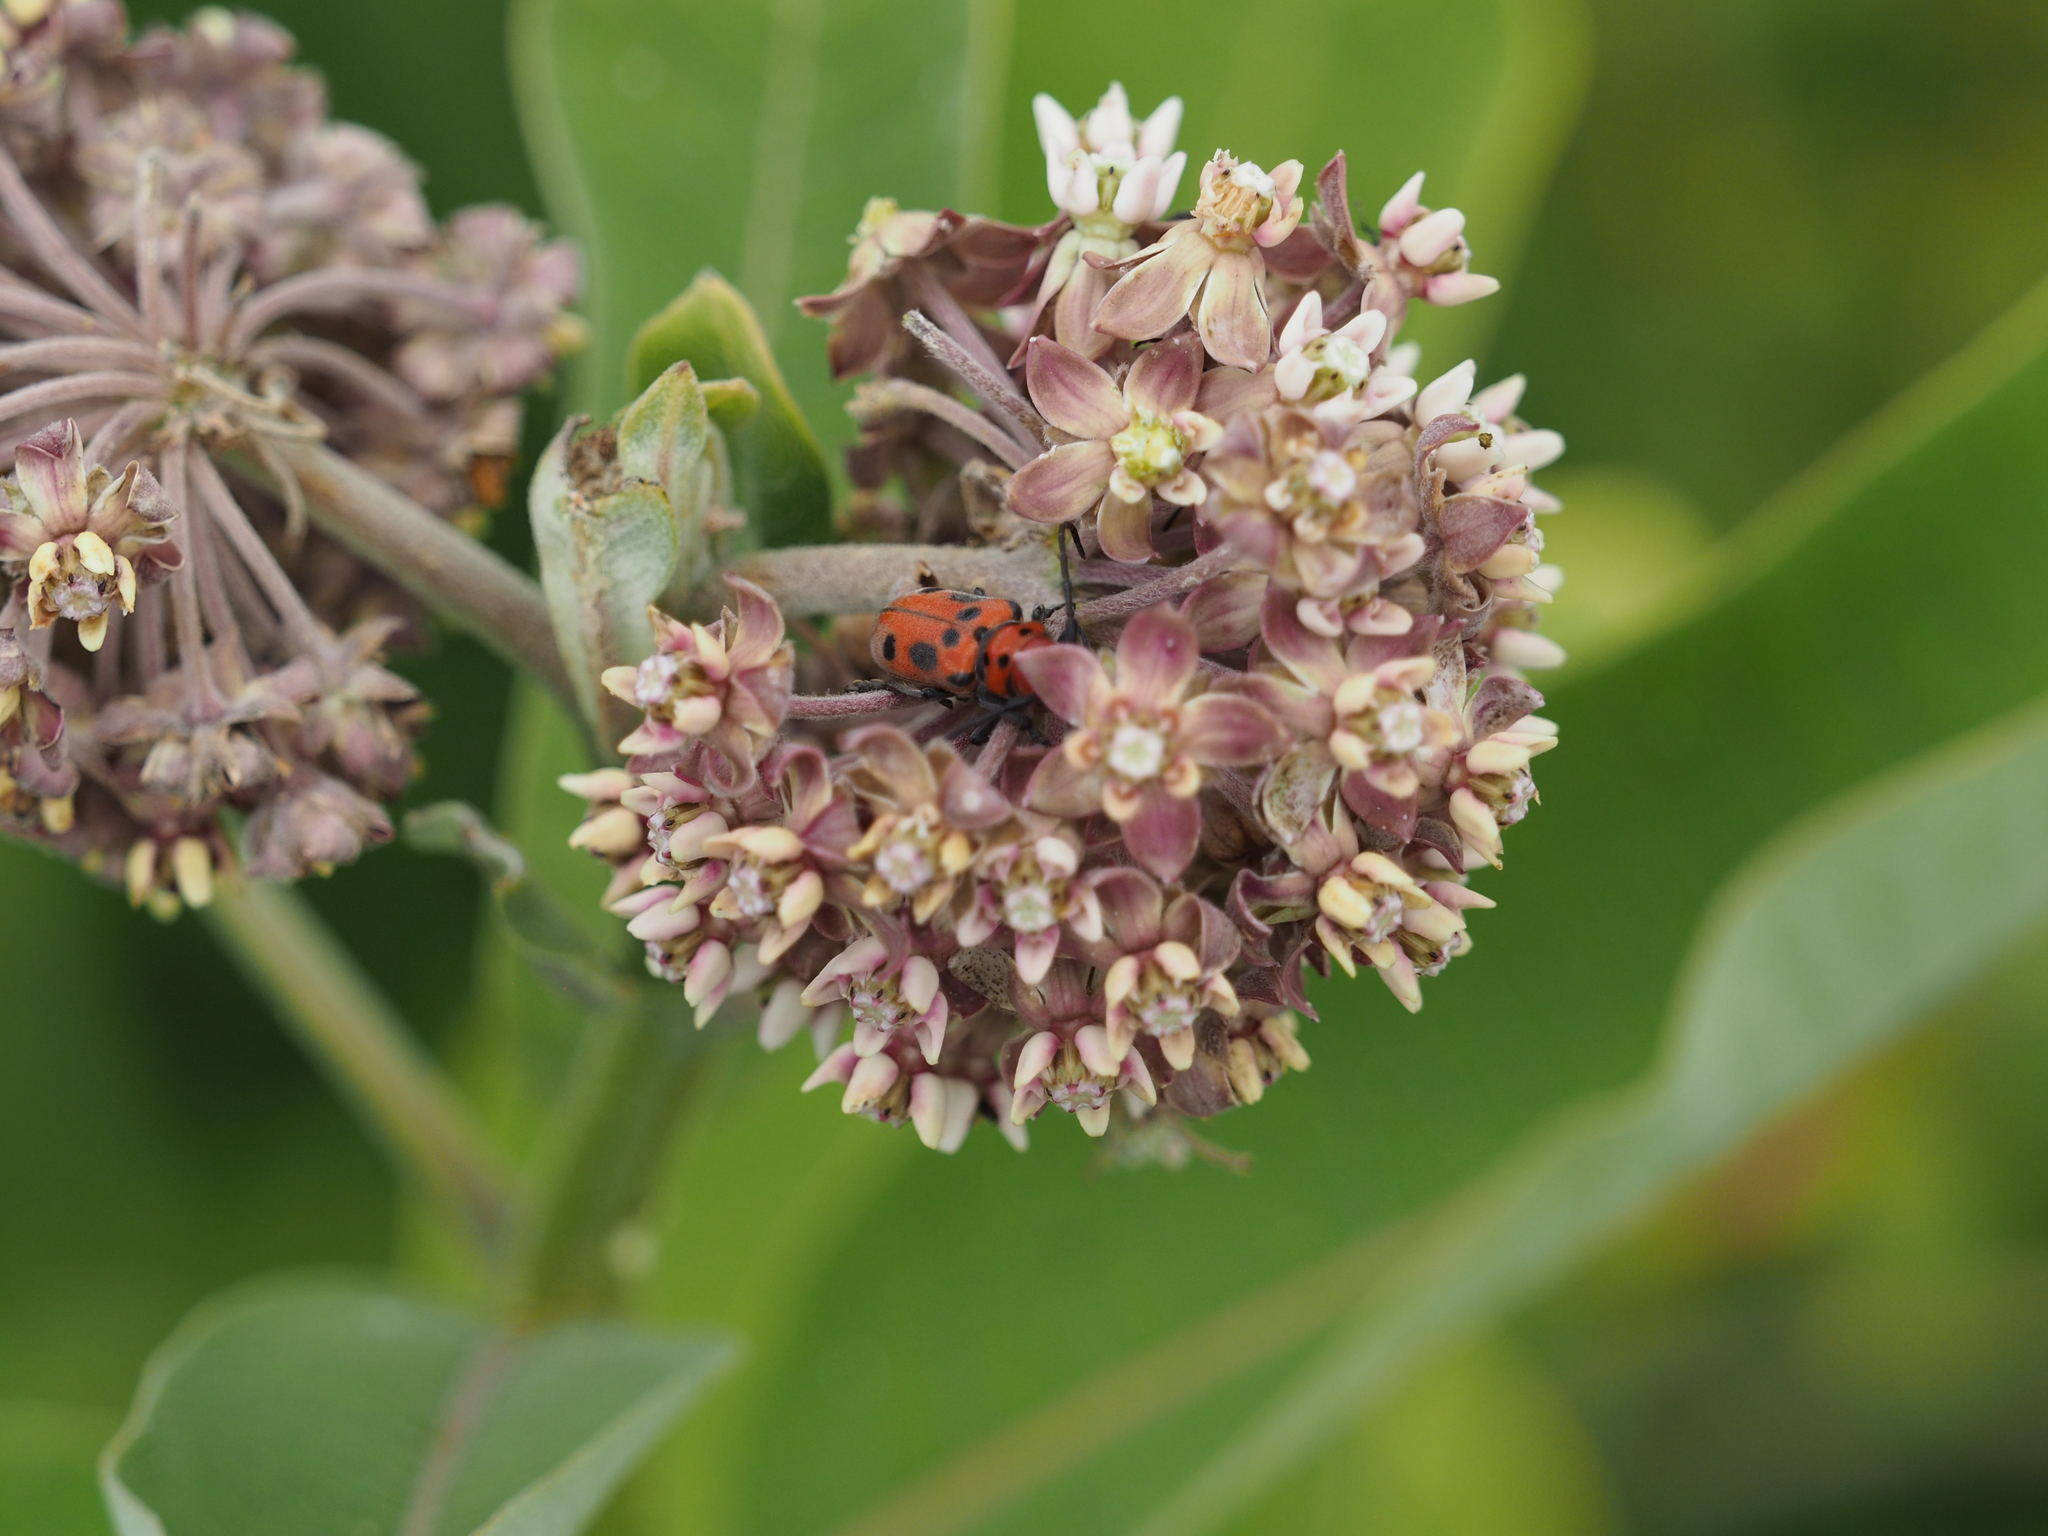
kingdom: Animalia
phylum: Arthropoda
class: Insecta
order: Coleoptera
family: Cerambycidae
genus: Tetraopes
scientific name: Tetraopes tetrophthalmus
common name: Red milkweed beetle
